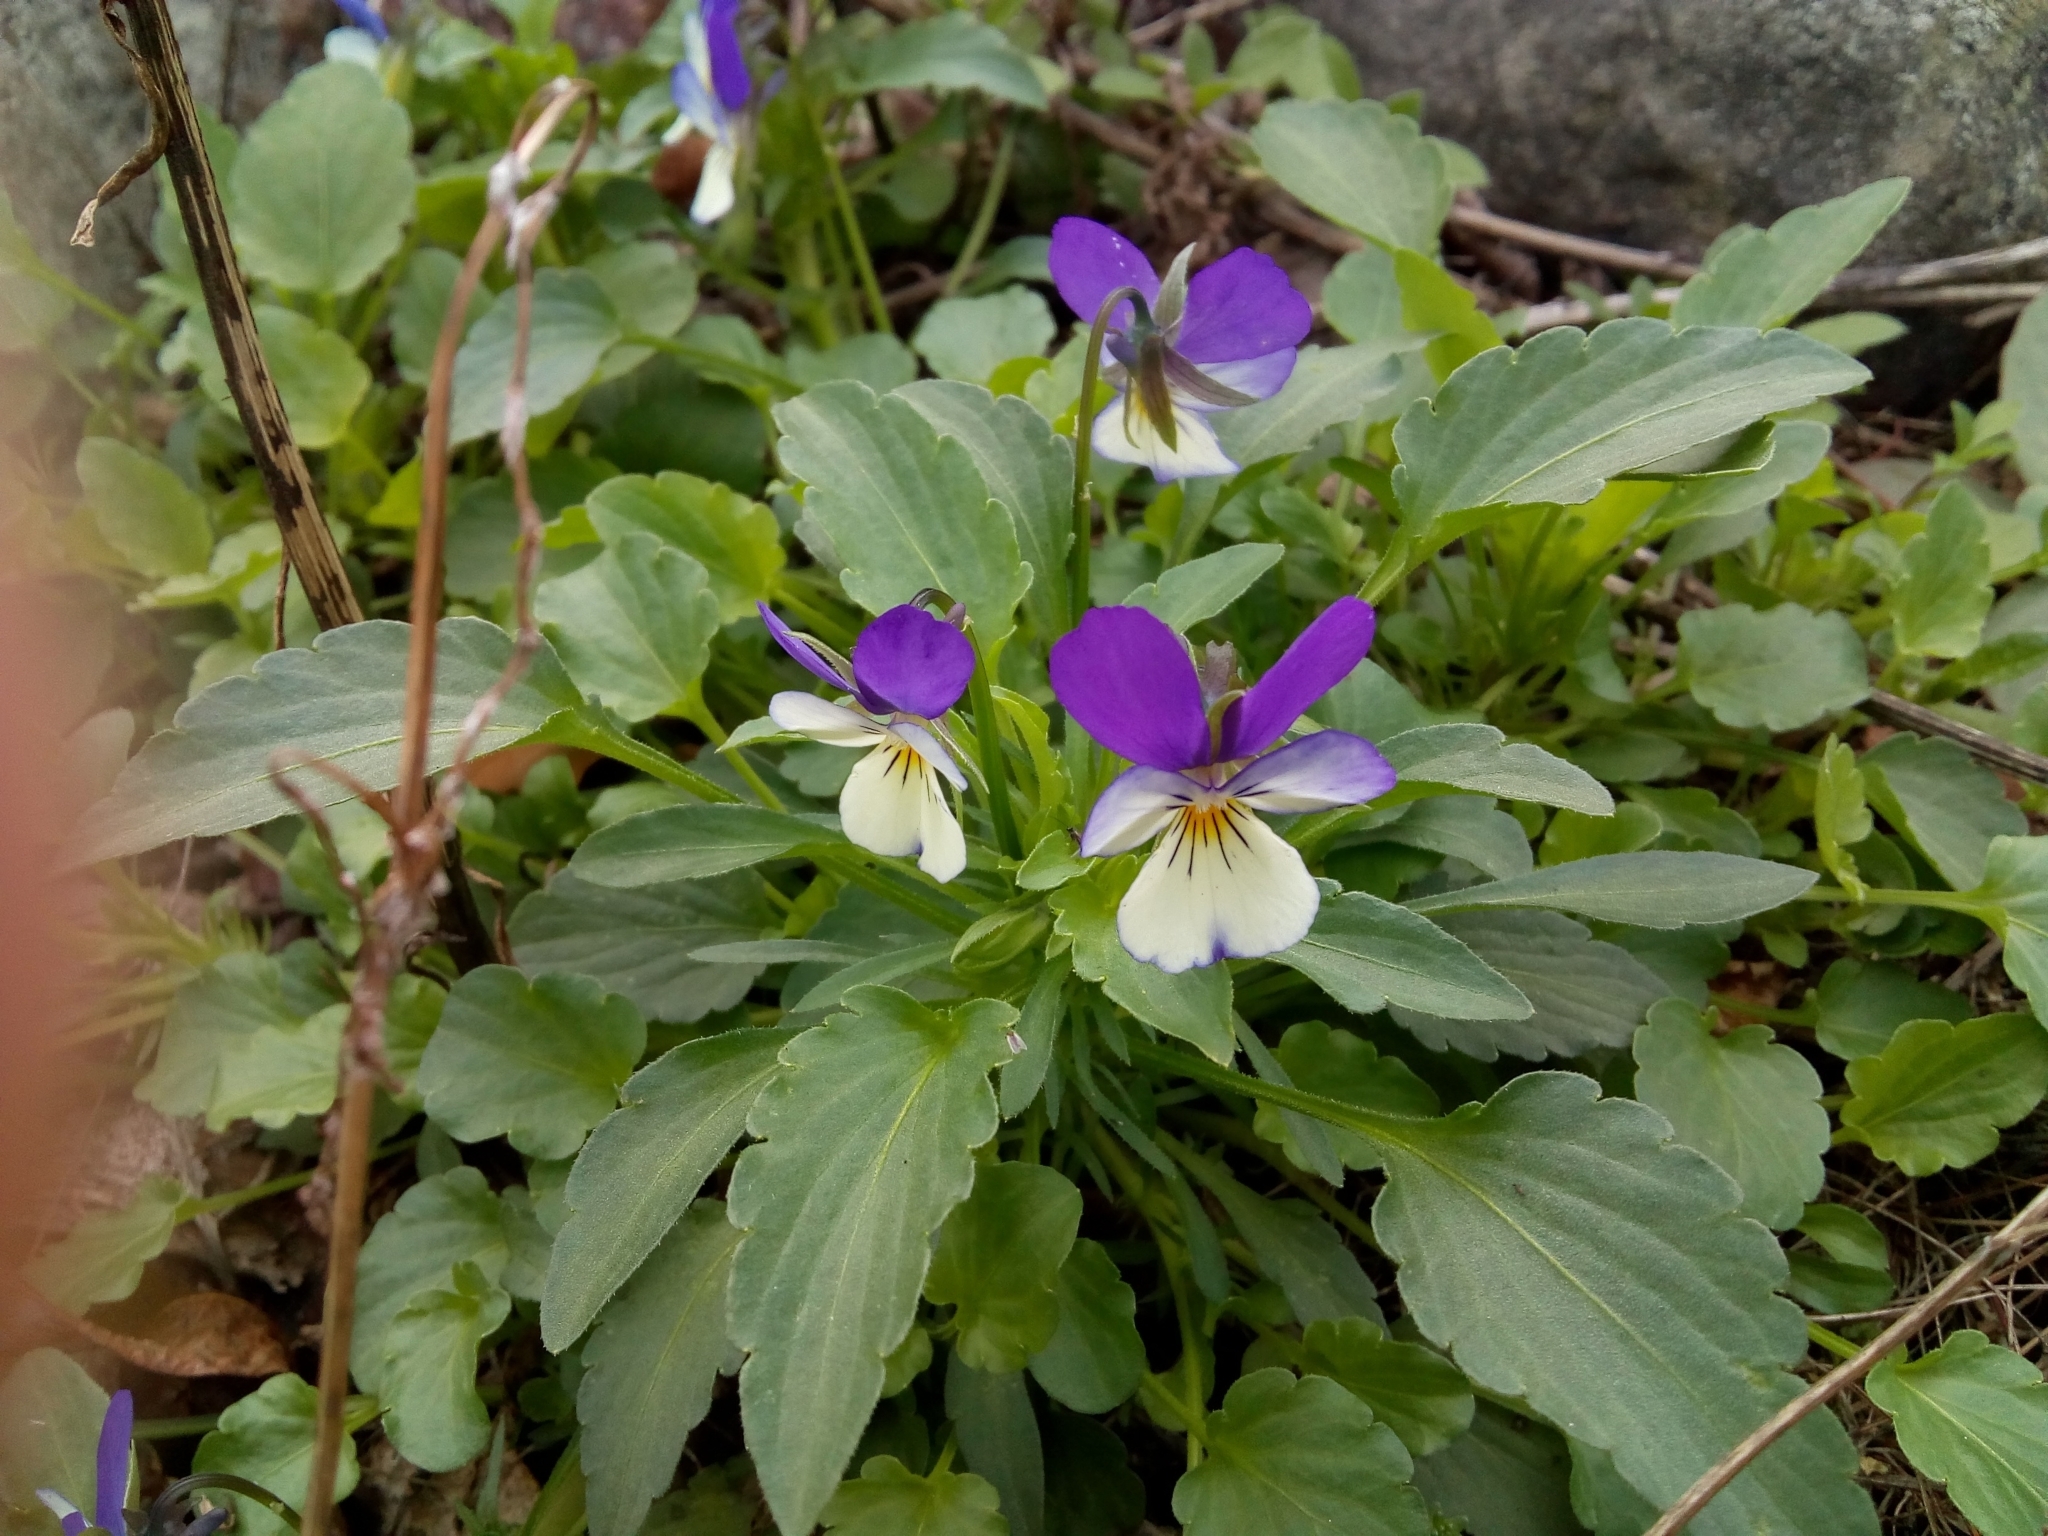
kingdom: Plantae
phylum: Tracheophyta
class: Magnoliopsida
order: Malpighiales
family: Violaceae
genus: Viola
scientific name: Viola tricolor
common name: Pansy
